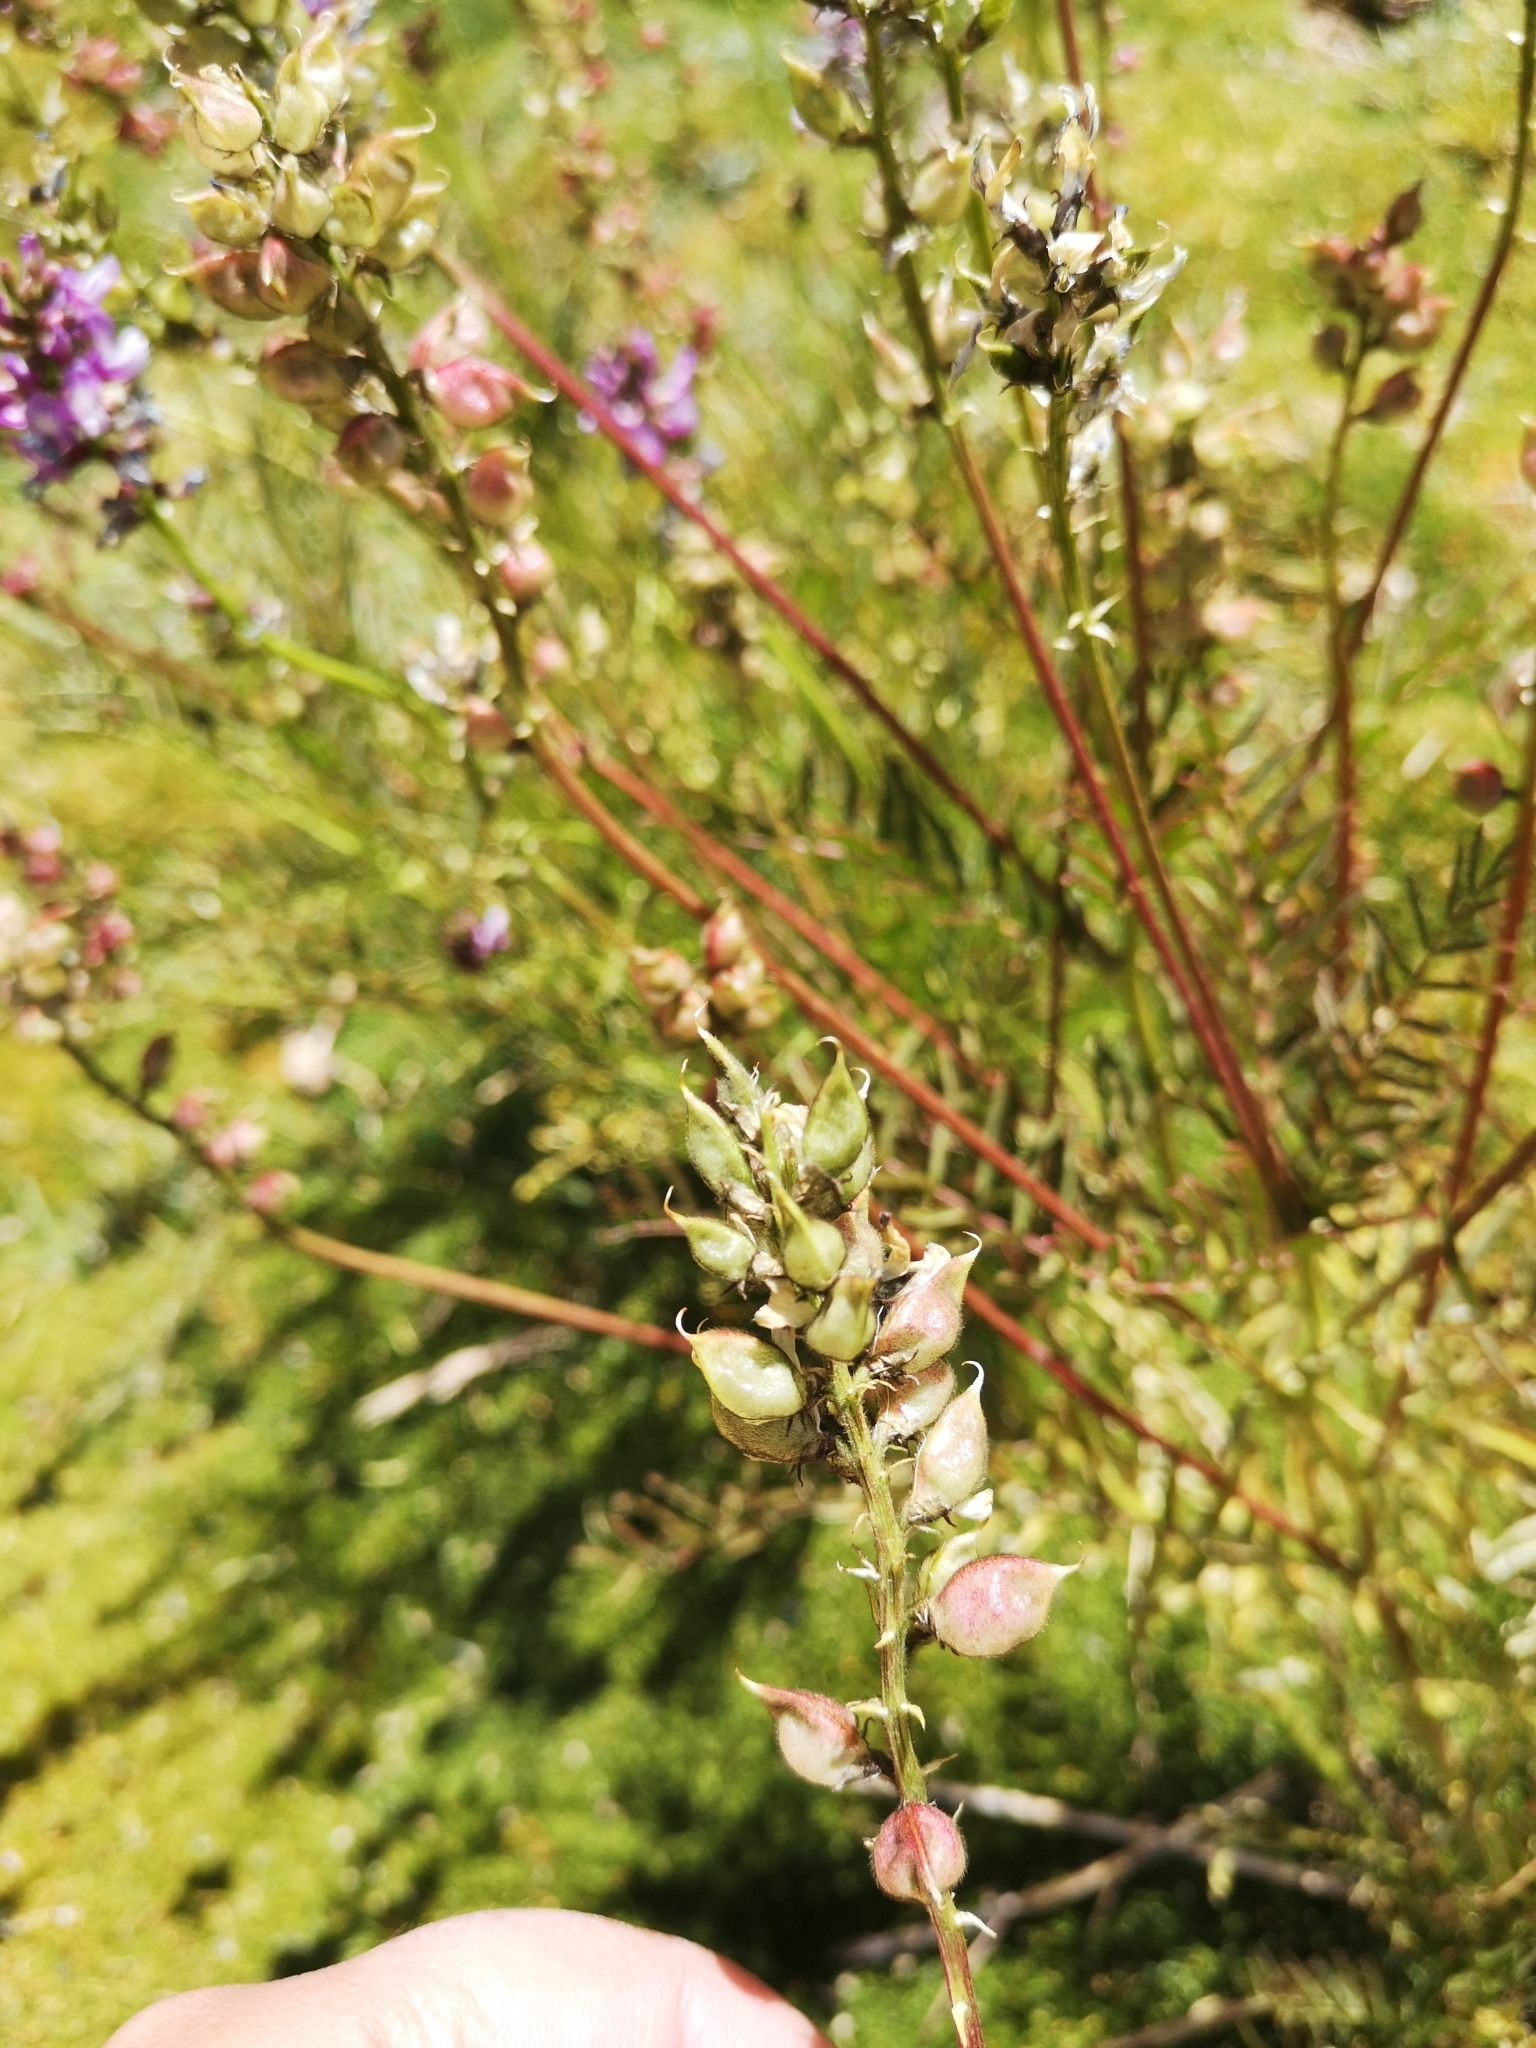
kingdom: Plantae
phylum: Tracheophyta
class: Magnoliopsida
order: Fabales
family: Fabaceae
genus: Astragalus
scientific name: Astragalus berterianus
